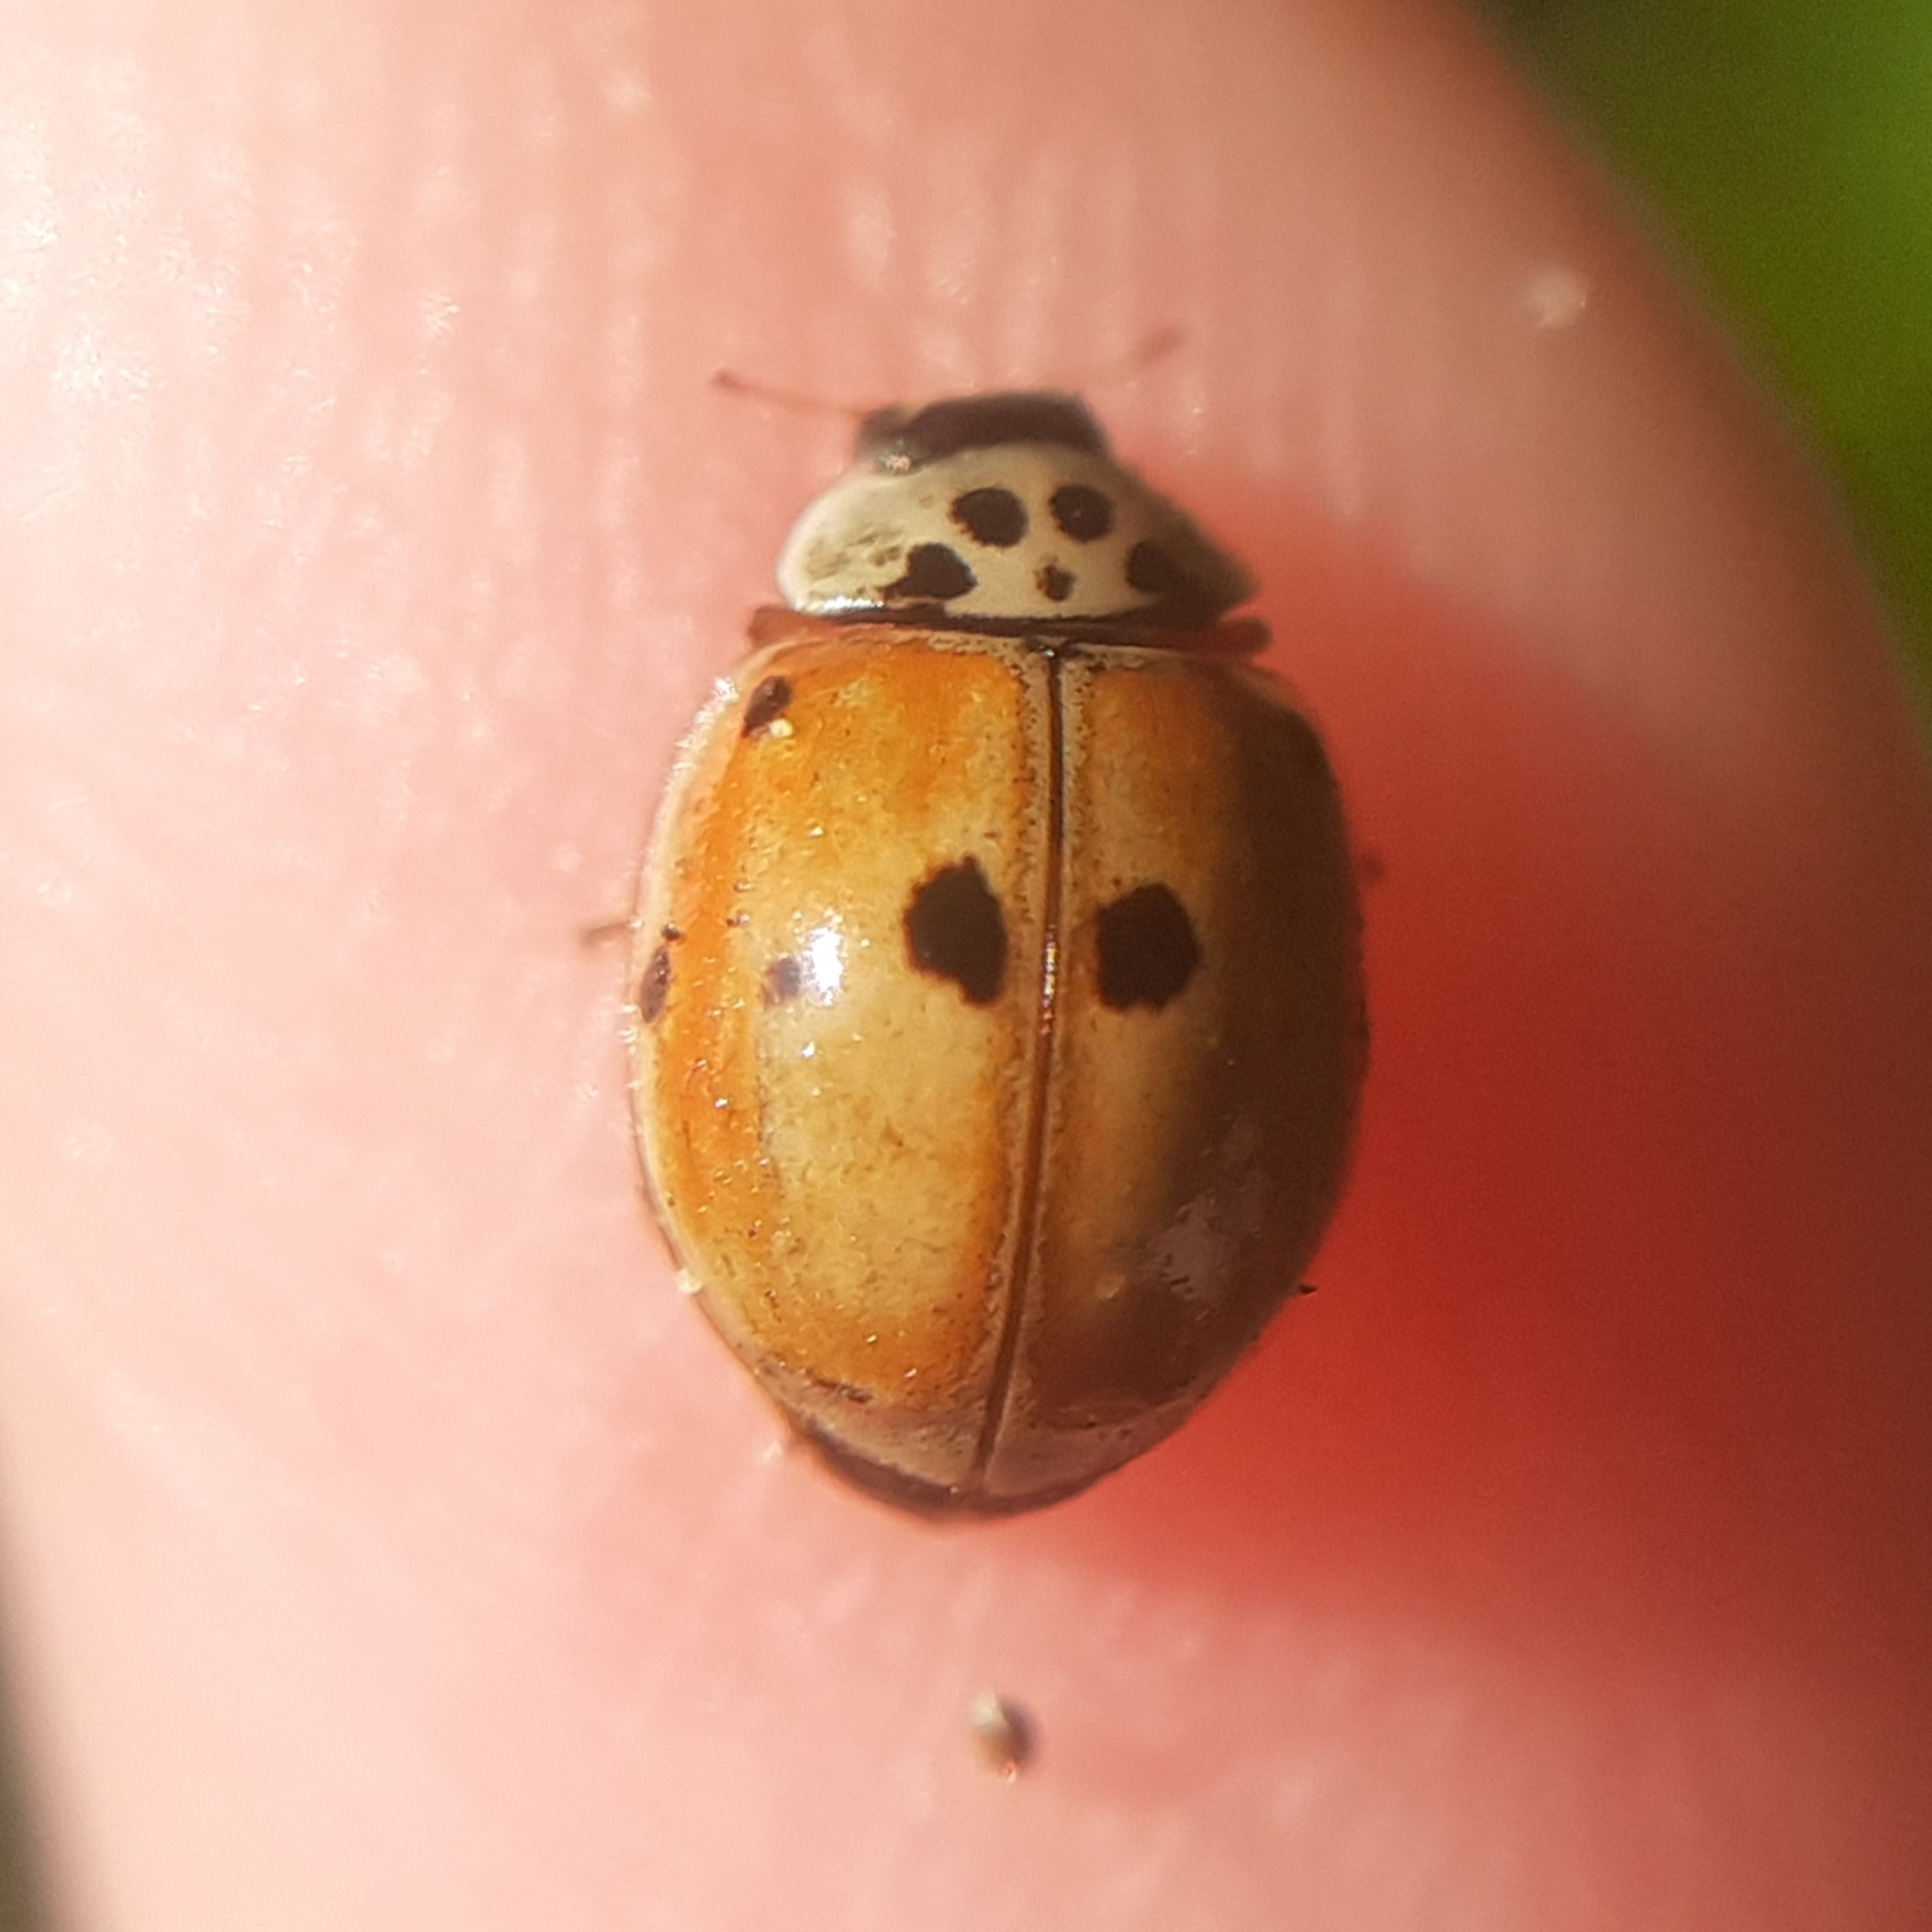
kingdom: Animalia
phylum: Arthropoda
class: Insecta
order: Coleoptera
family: Coccinellidae
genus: Adalia
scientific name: Adalia decempunctata
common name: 10-spot ladybird
